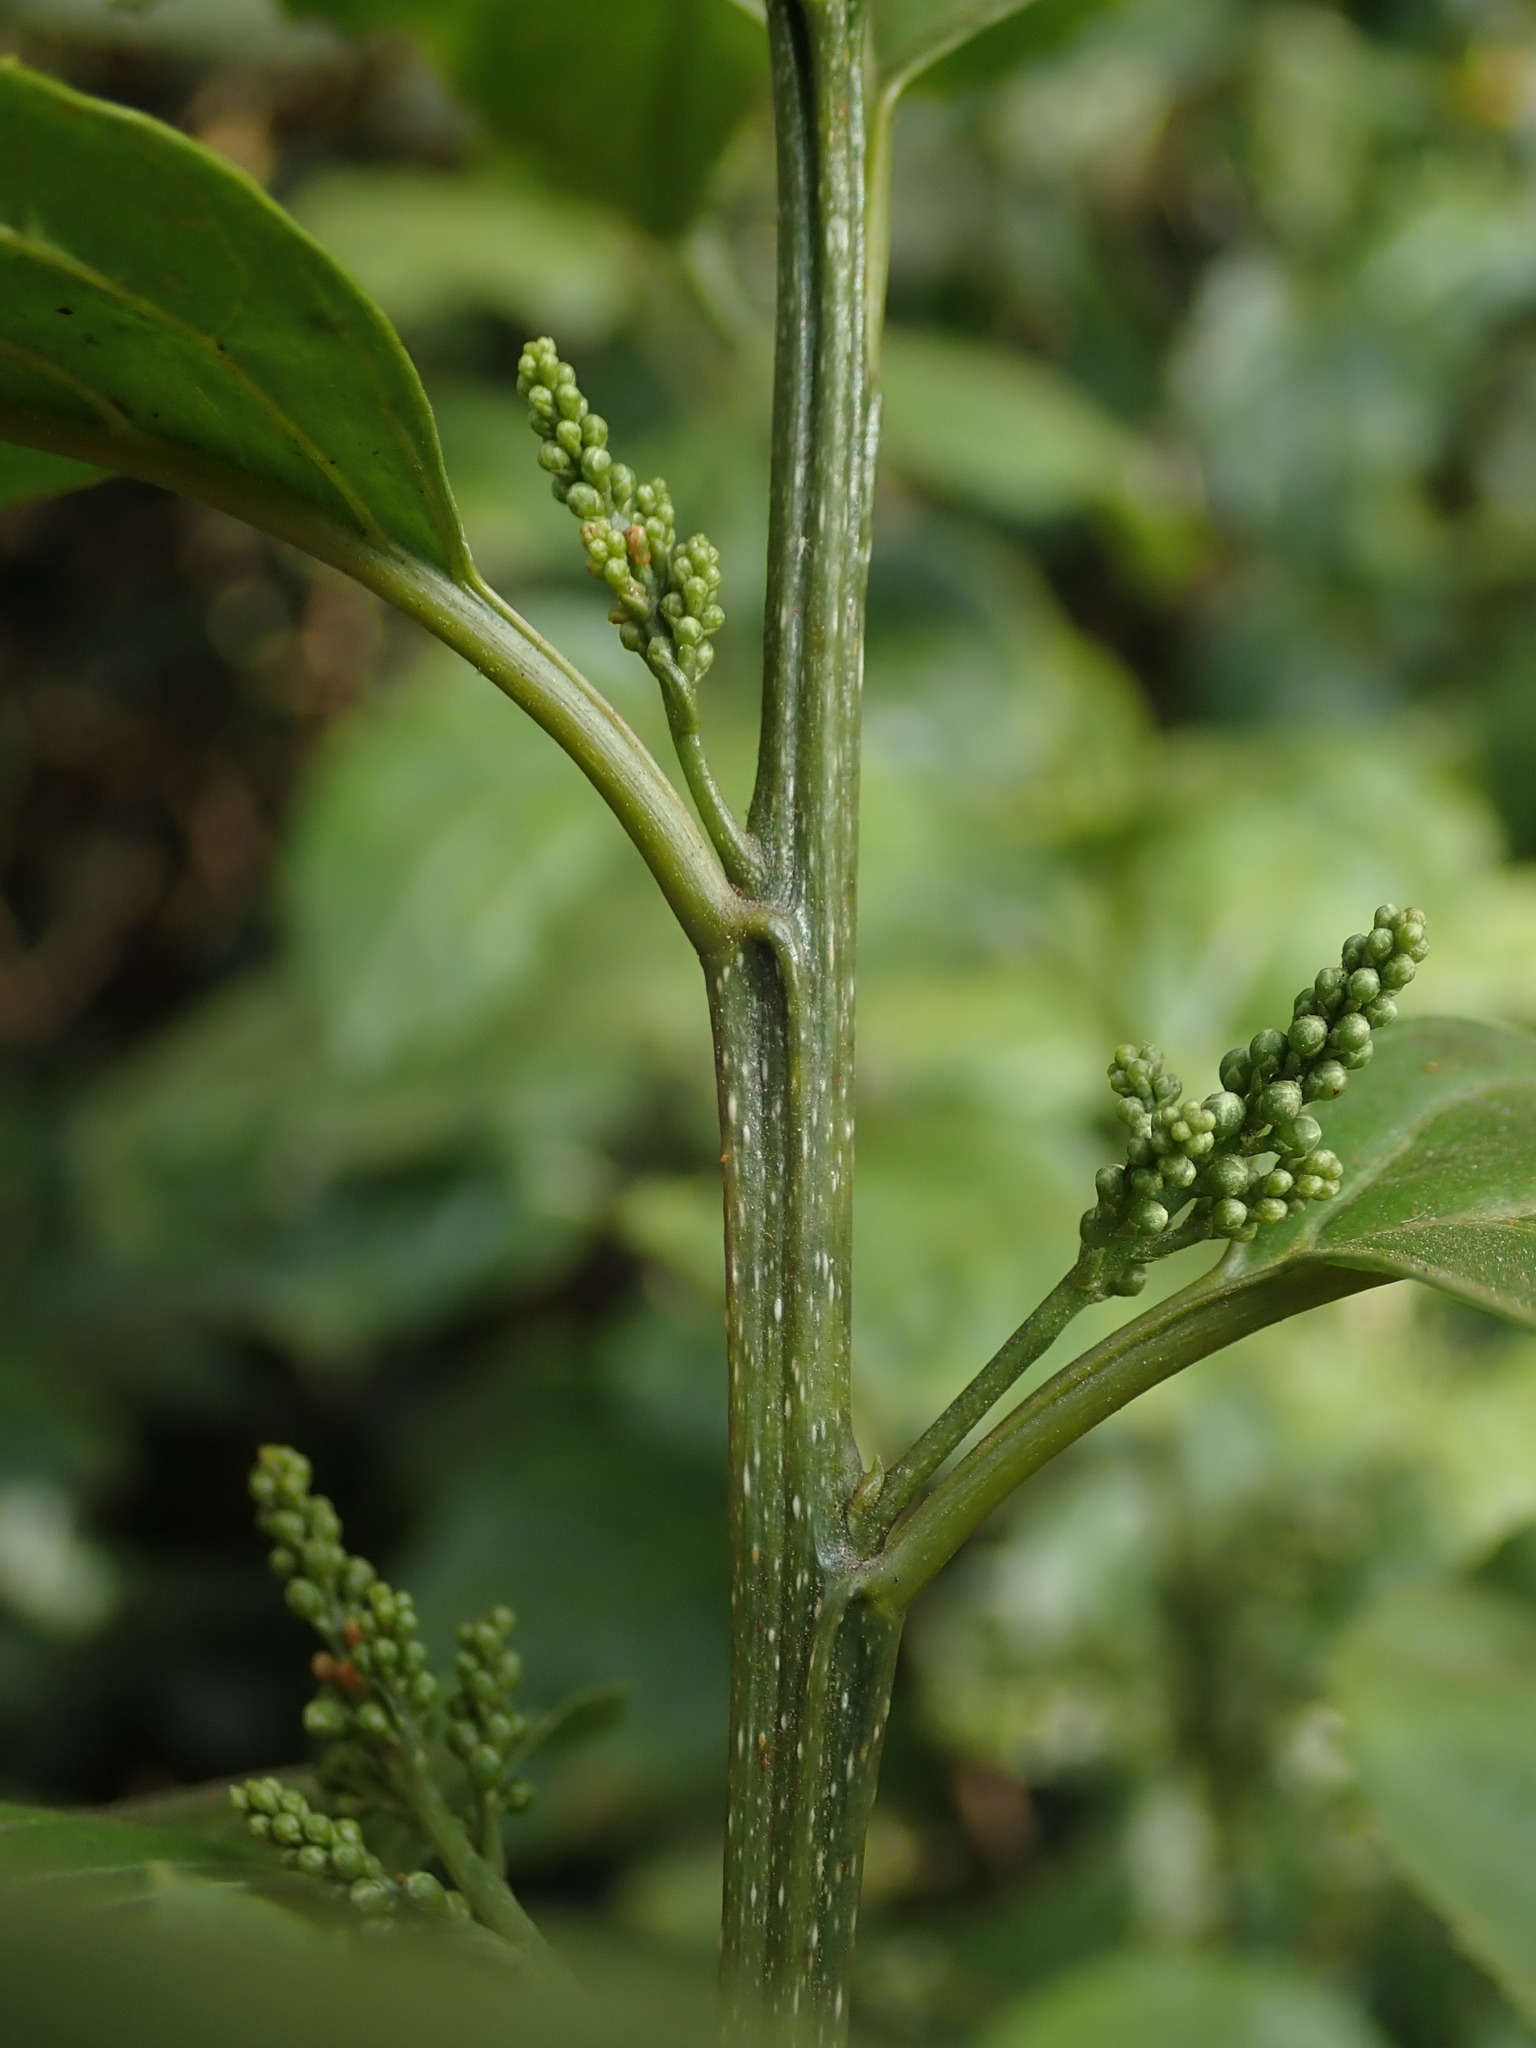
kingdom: Plantae
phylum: Tracheophyta
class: Magnoliopsida
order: Ericales
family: Primulaceae
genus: Maesa
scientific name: Maesa indica
